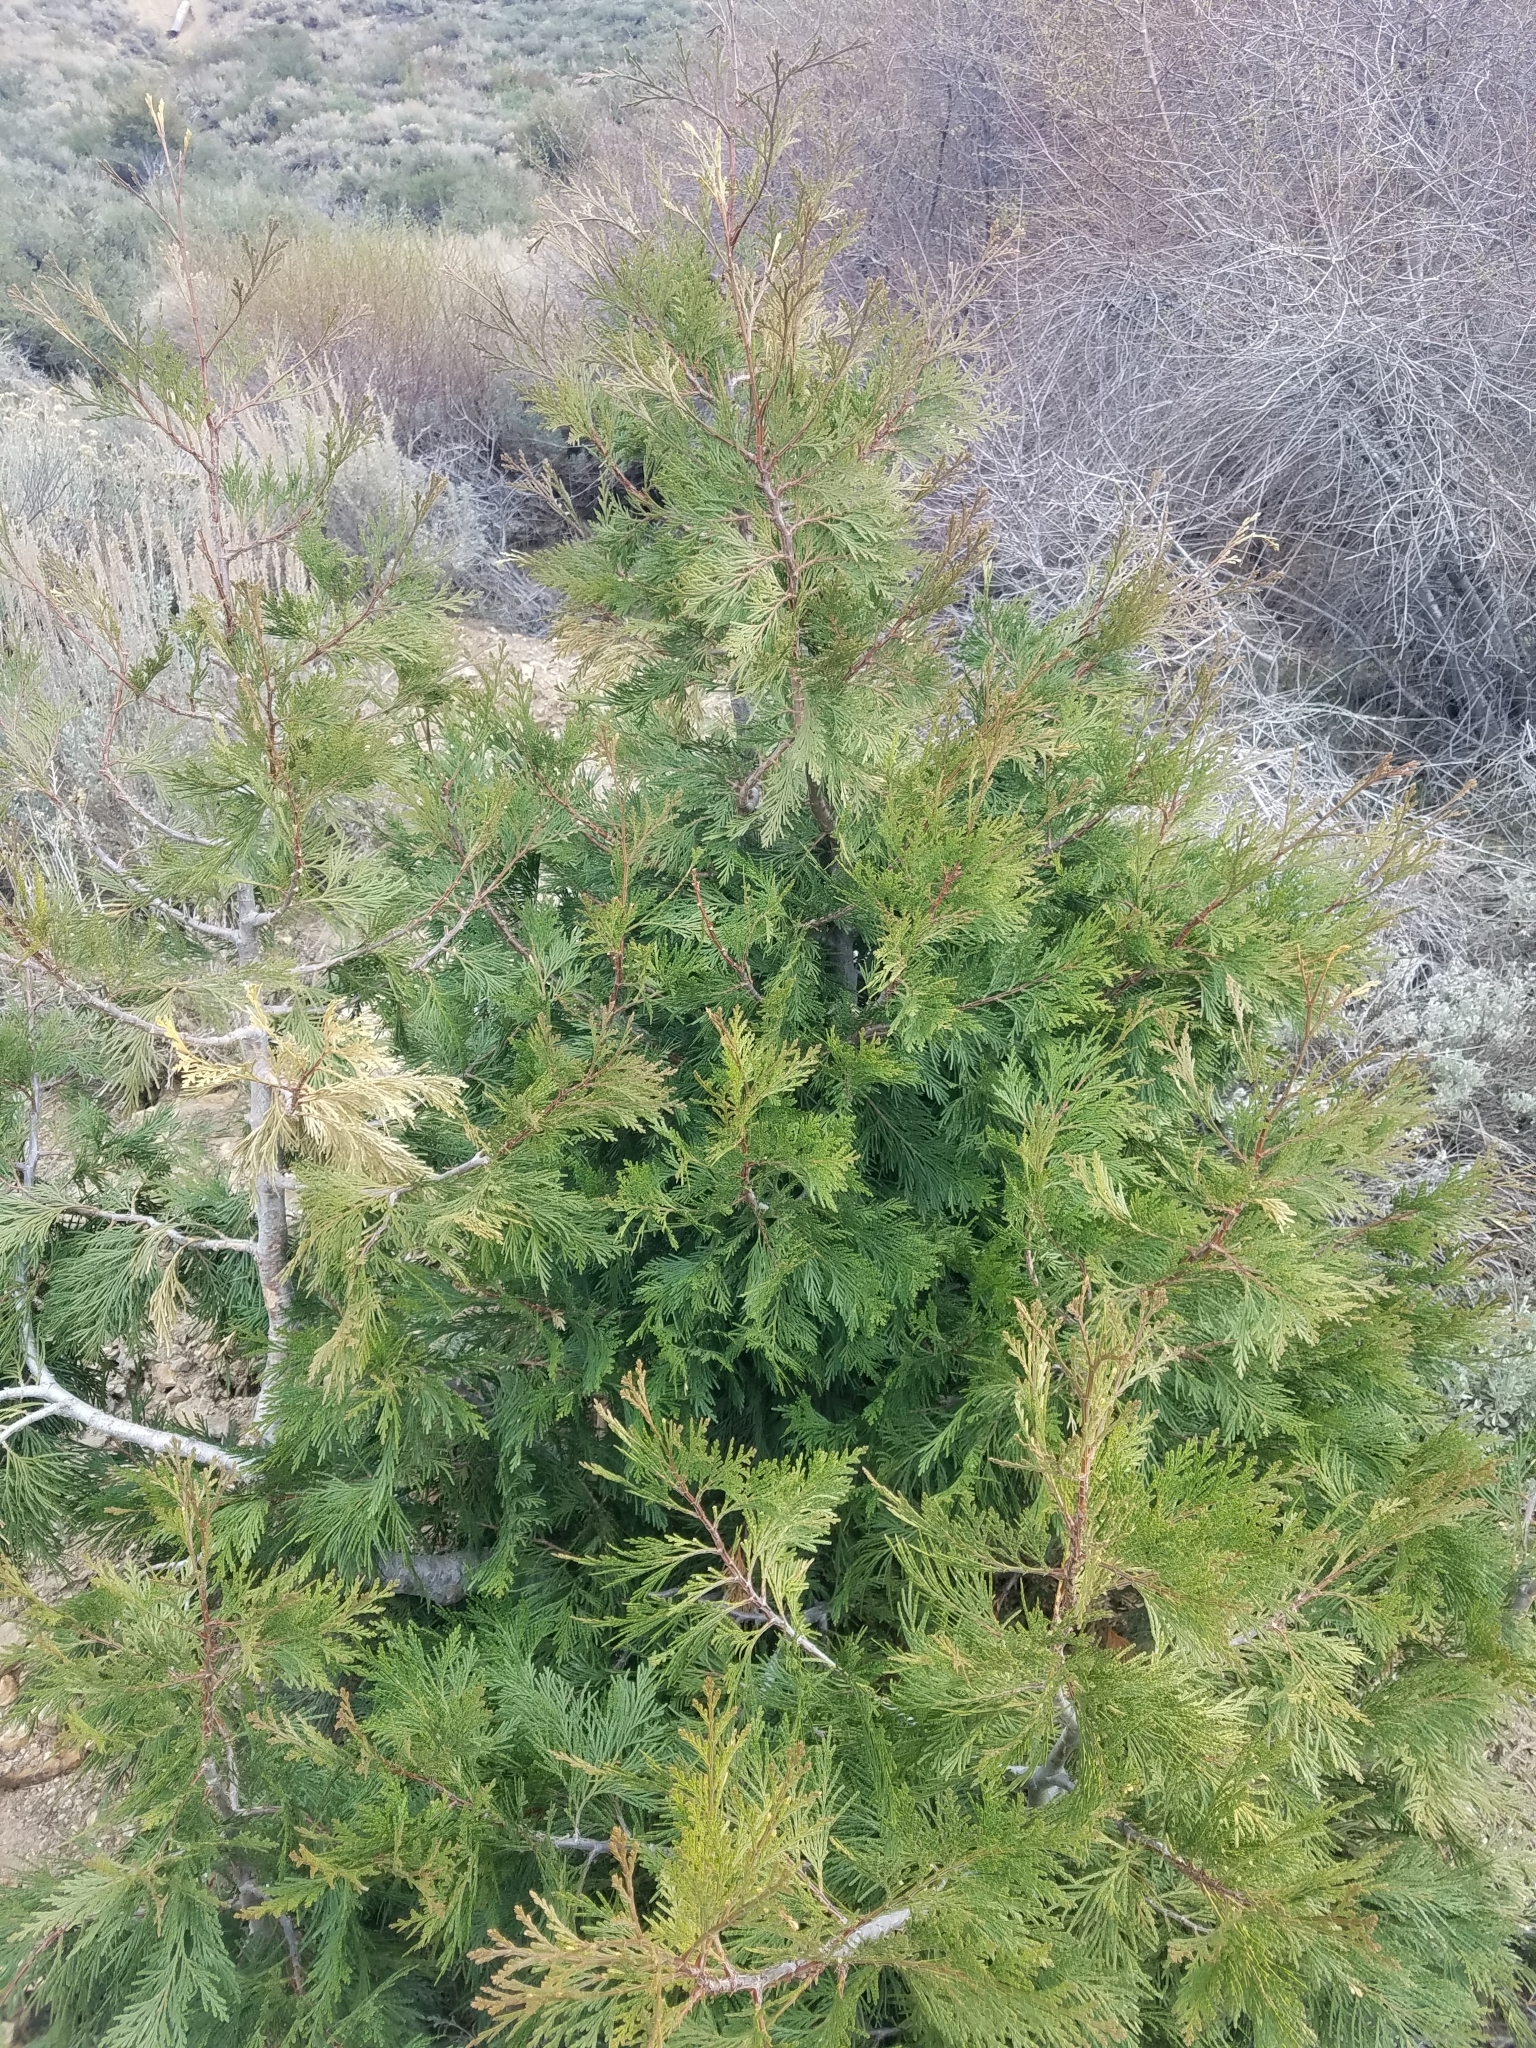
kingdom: Plantae
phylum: Tracheophyta
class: Pinopsida
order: Pinales
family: Cupressaceae
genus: Calocedrus
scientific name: Calocedrus decurrens
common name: Californian incense-cedar
